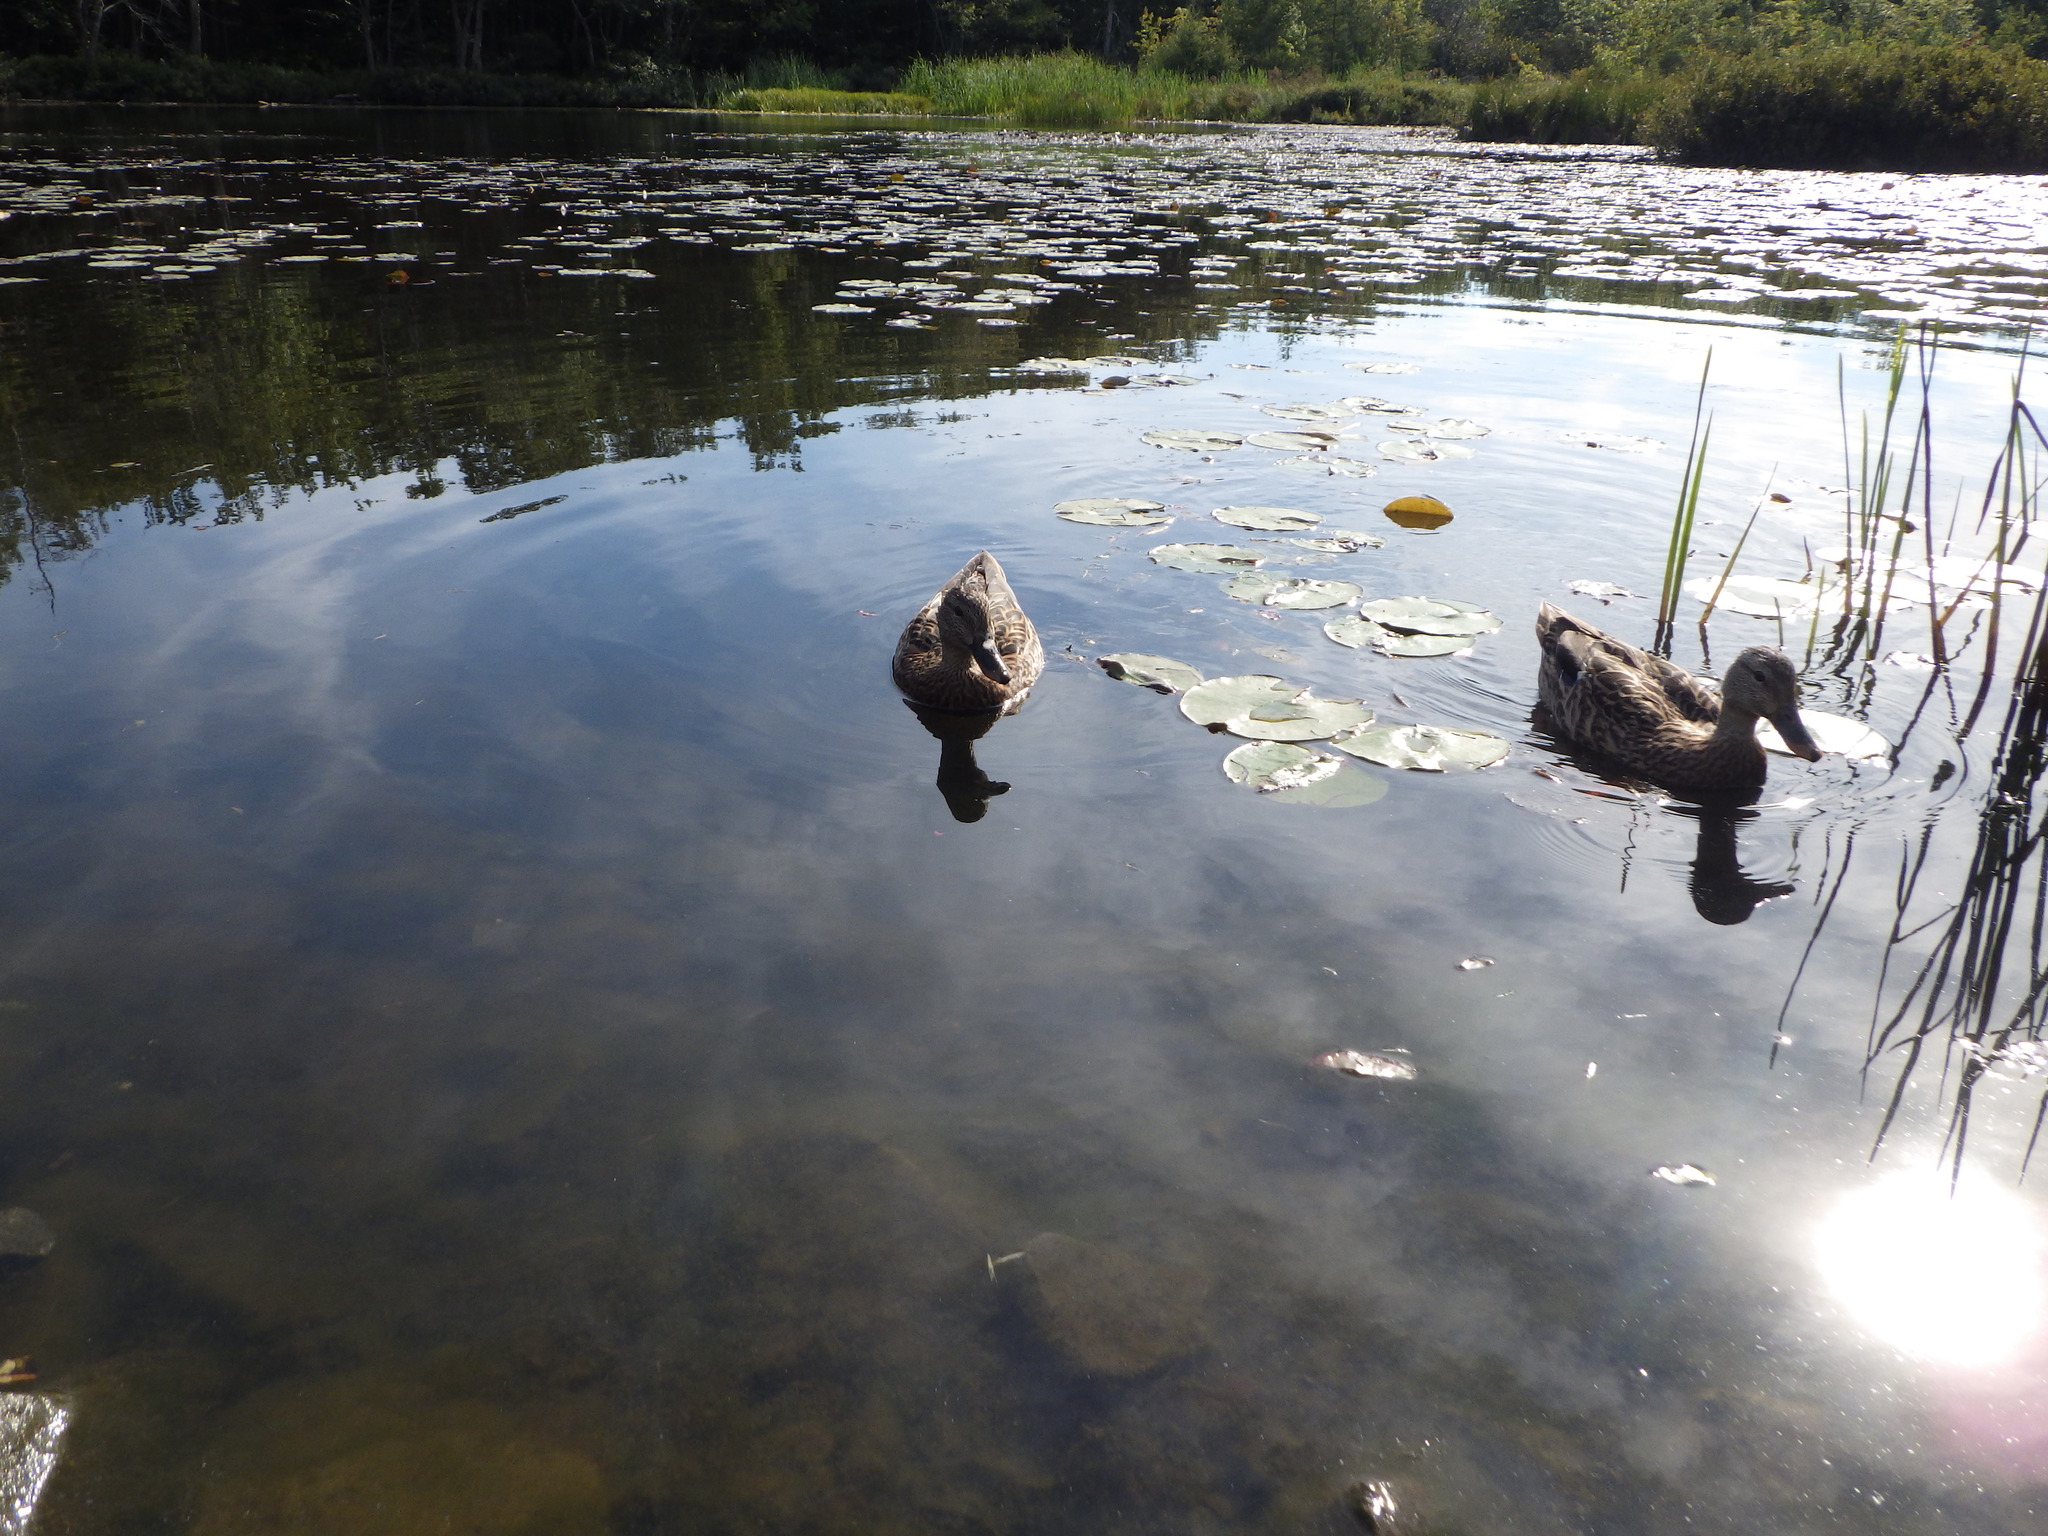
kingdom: Animalia
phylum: Chordata
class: Aves
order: Anseriformes
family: Anatidae
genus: Anas
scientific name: Anas platyrhynchos
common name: Mallard
